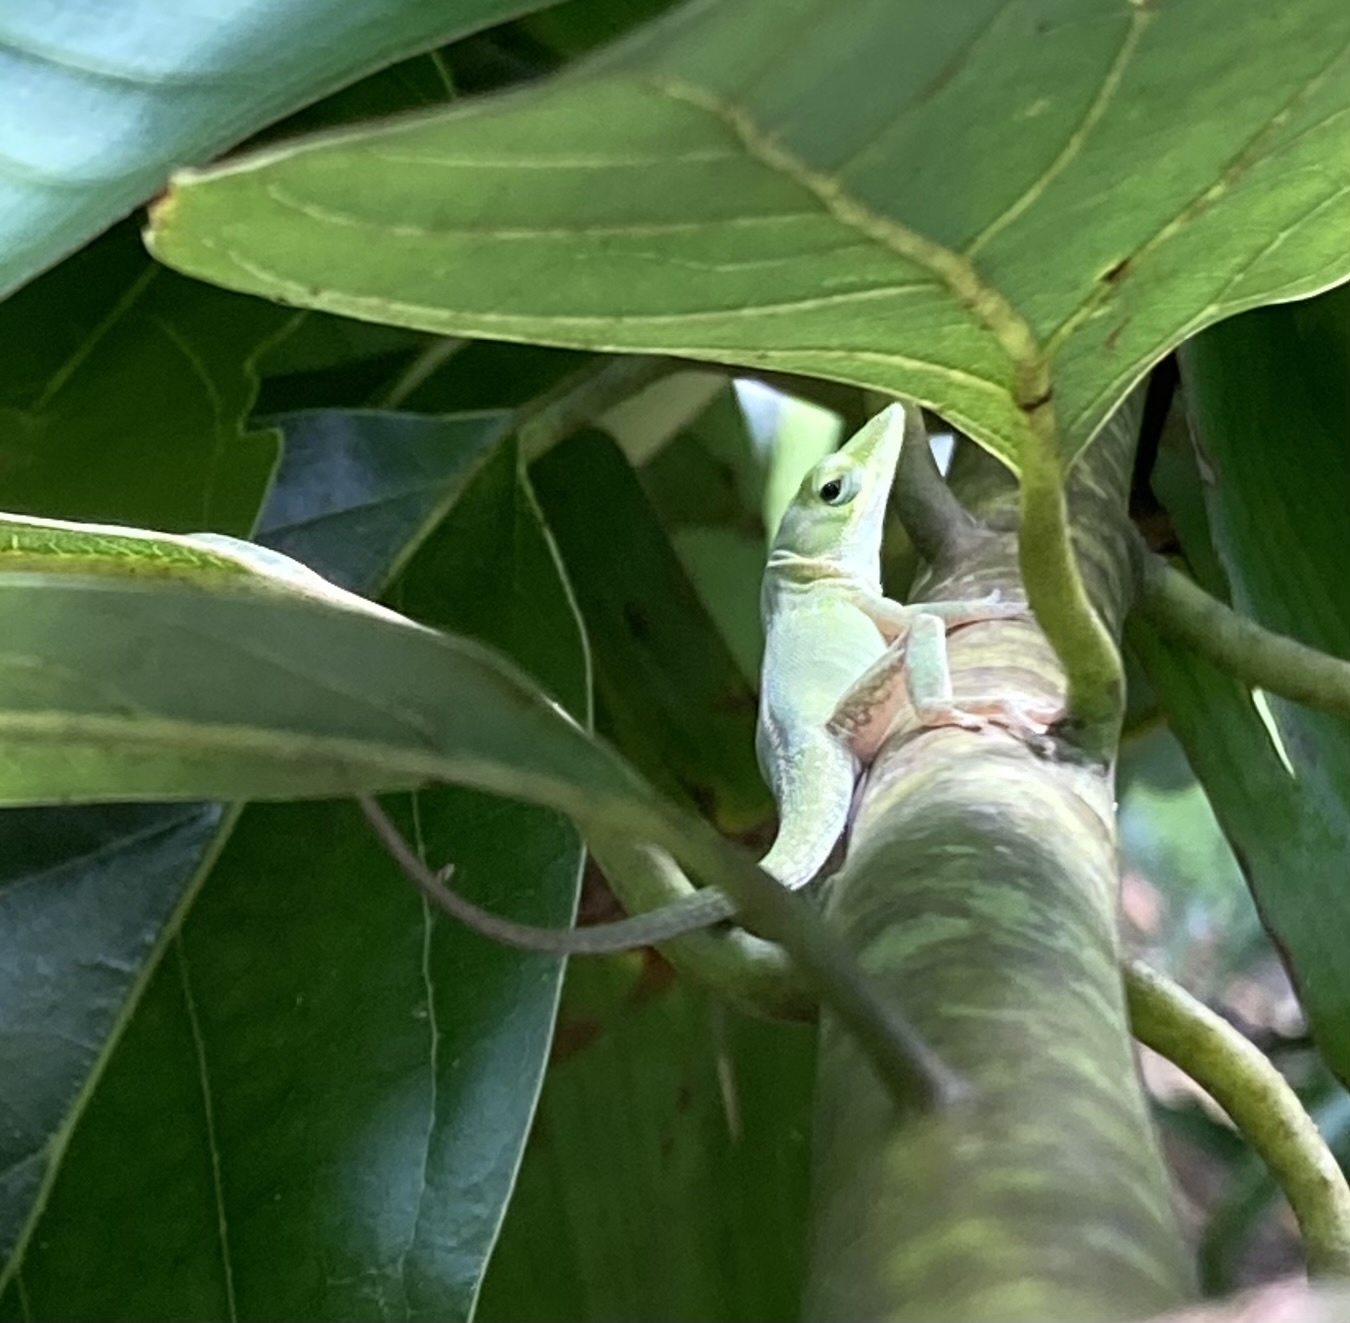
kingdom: Animalia
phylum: Chordata
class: Squamata
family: Dactyloidae
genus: Anolis
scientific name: Anolis carolinensis
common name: Green anole
